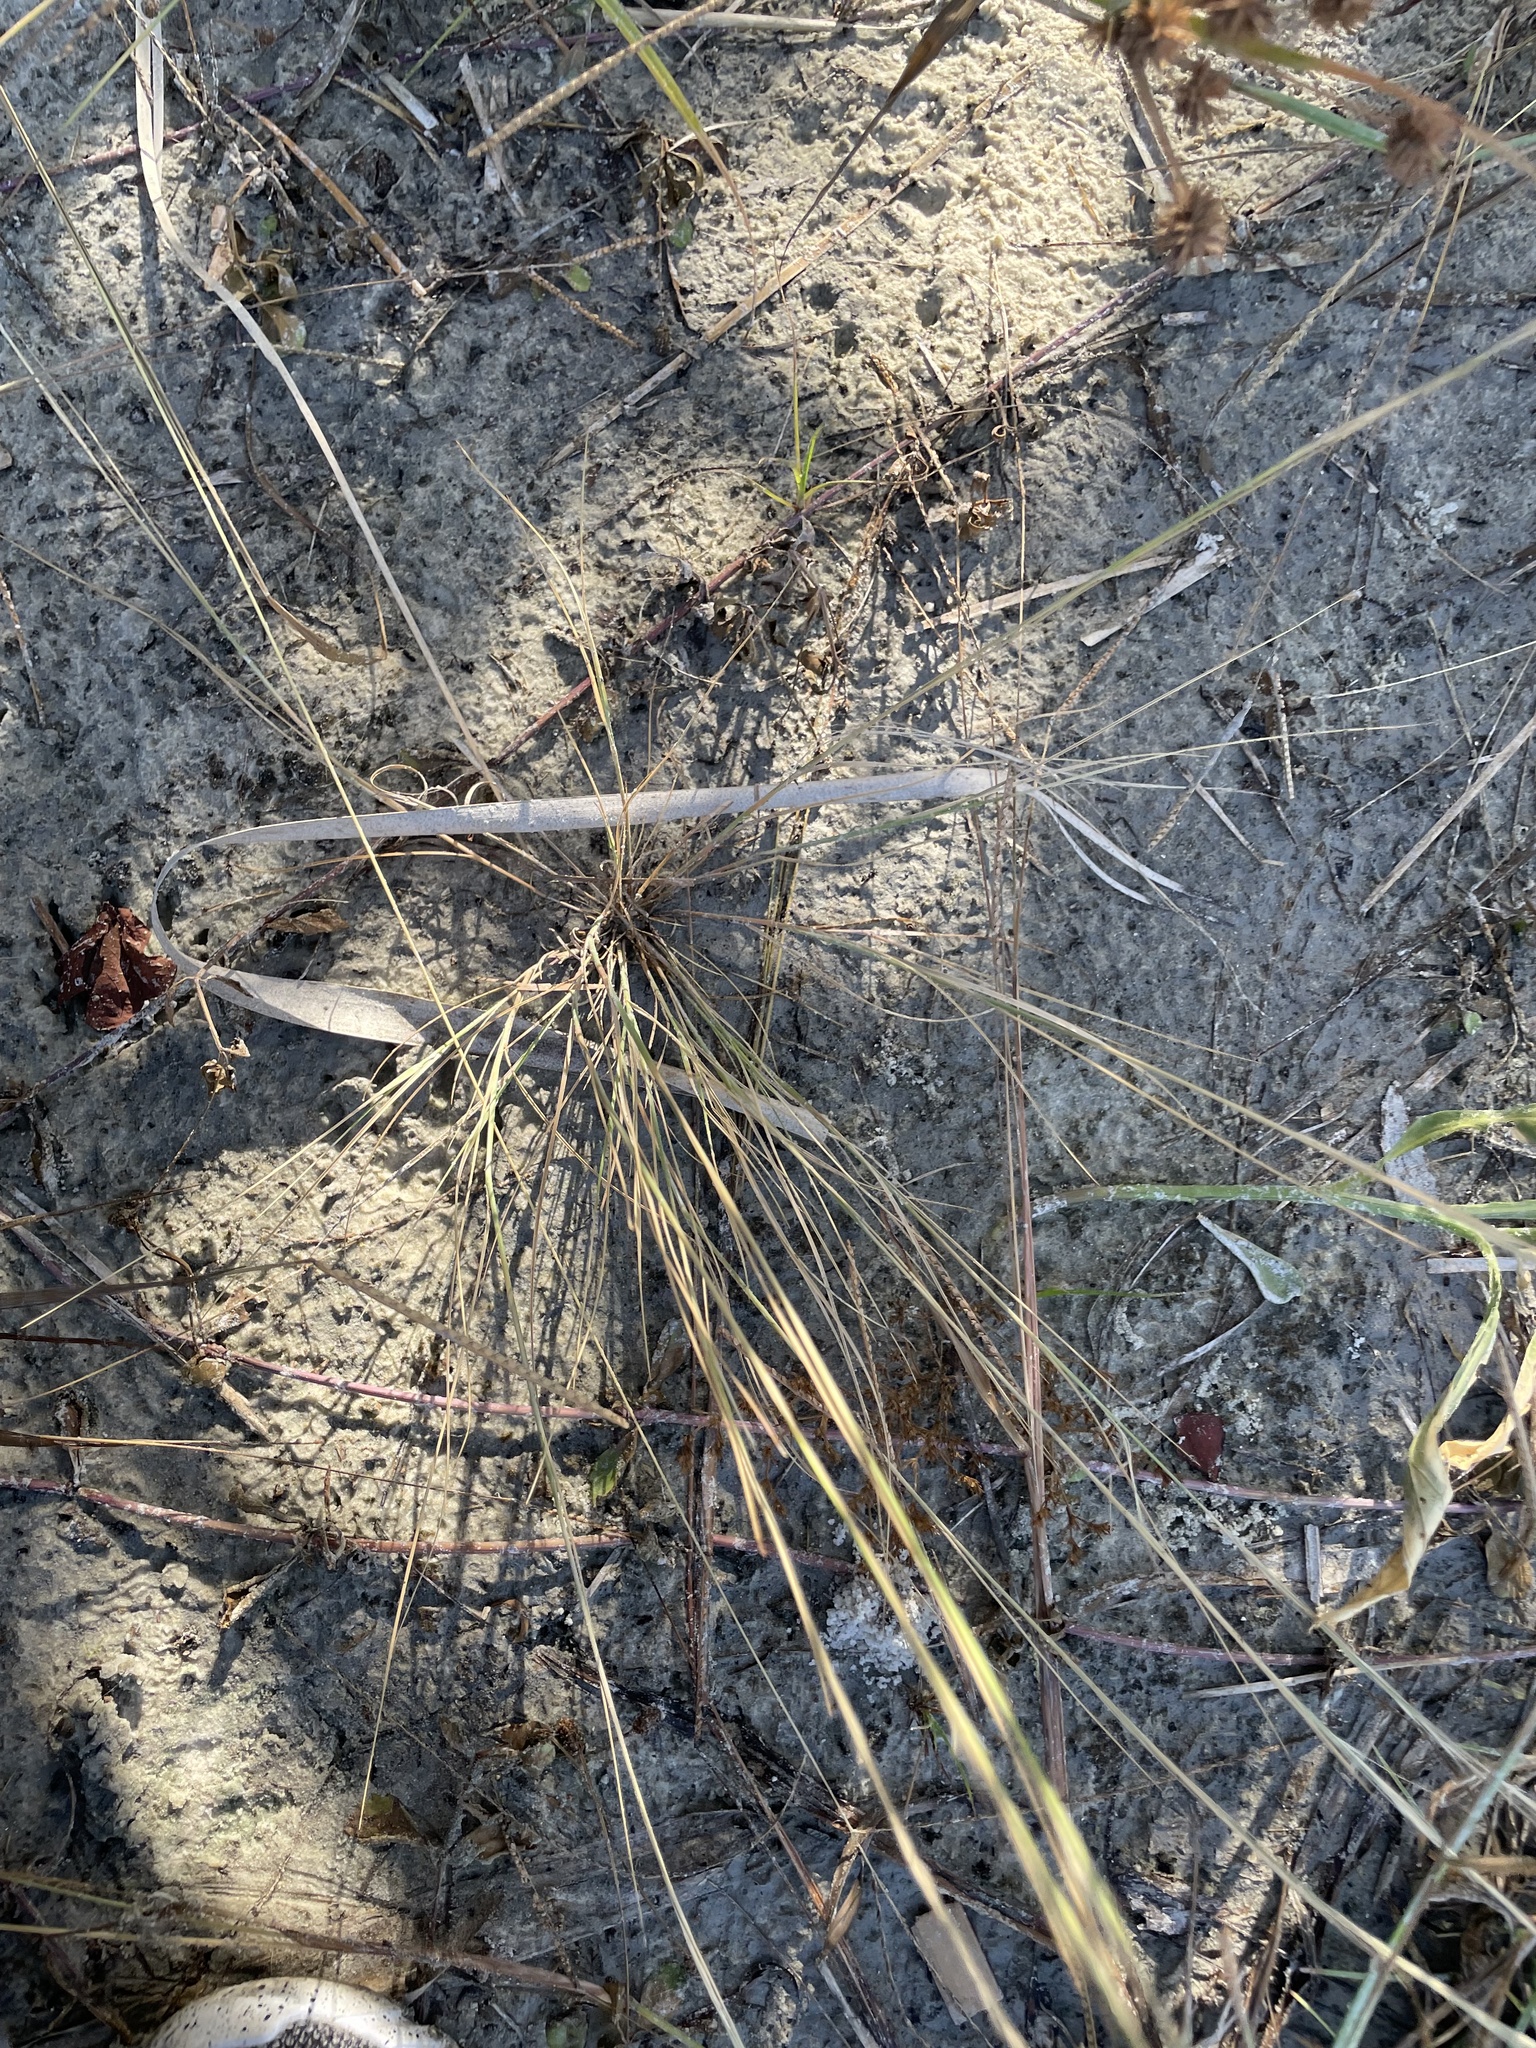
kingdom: Plantae
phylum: Tracheophyta
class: Liliopsida
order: Poales
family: Poaceae
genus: Aristida
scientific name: Aristida purpurascens
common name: Arrow-feather
